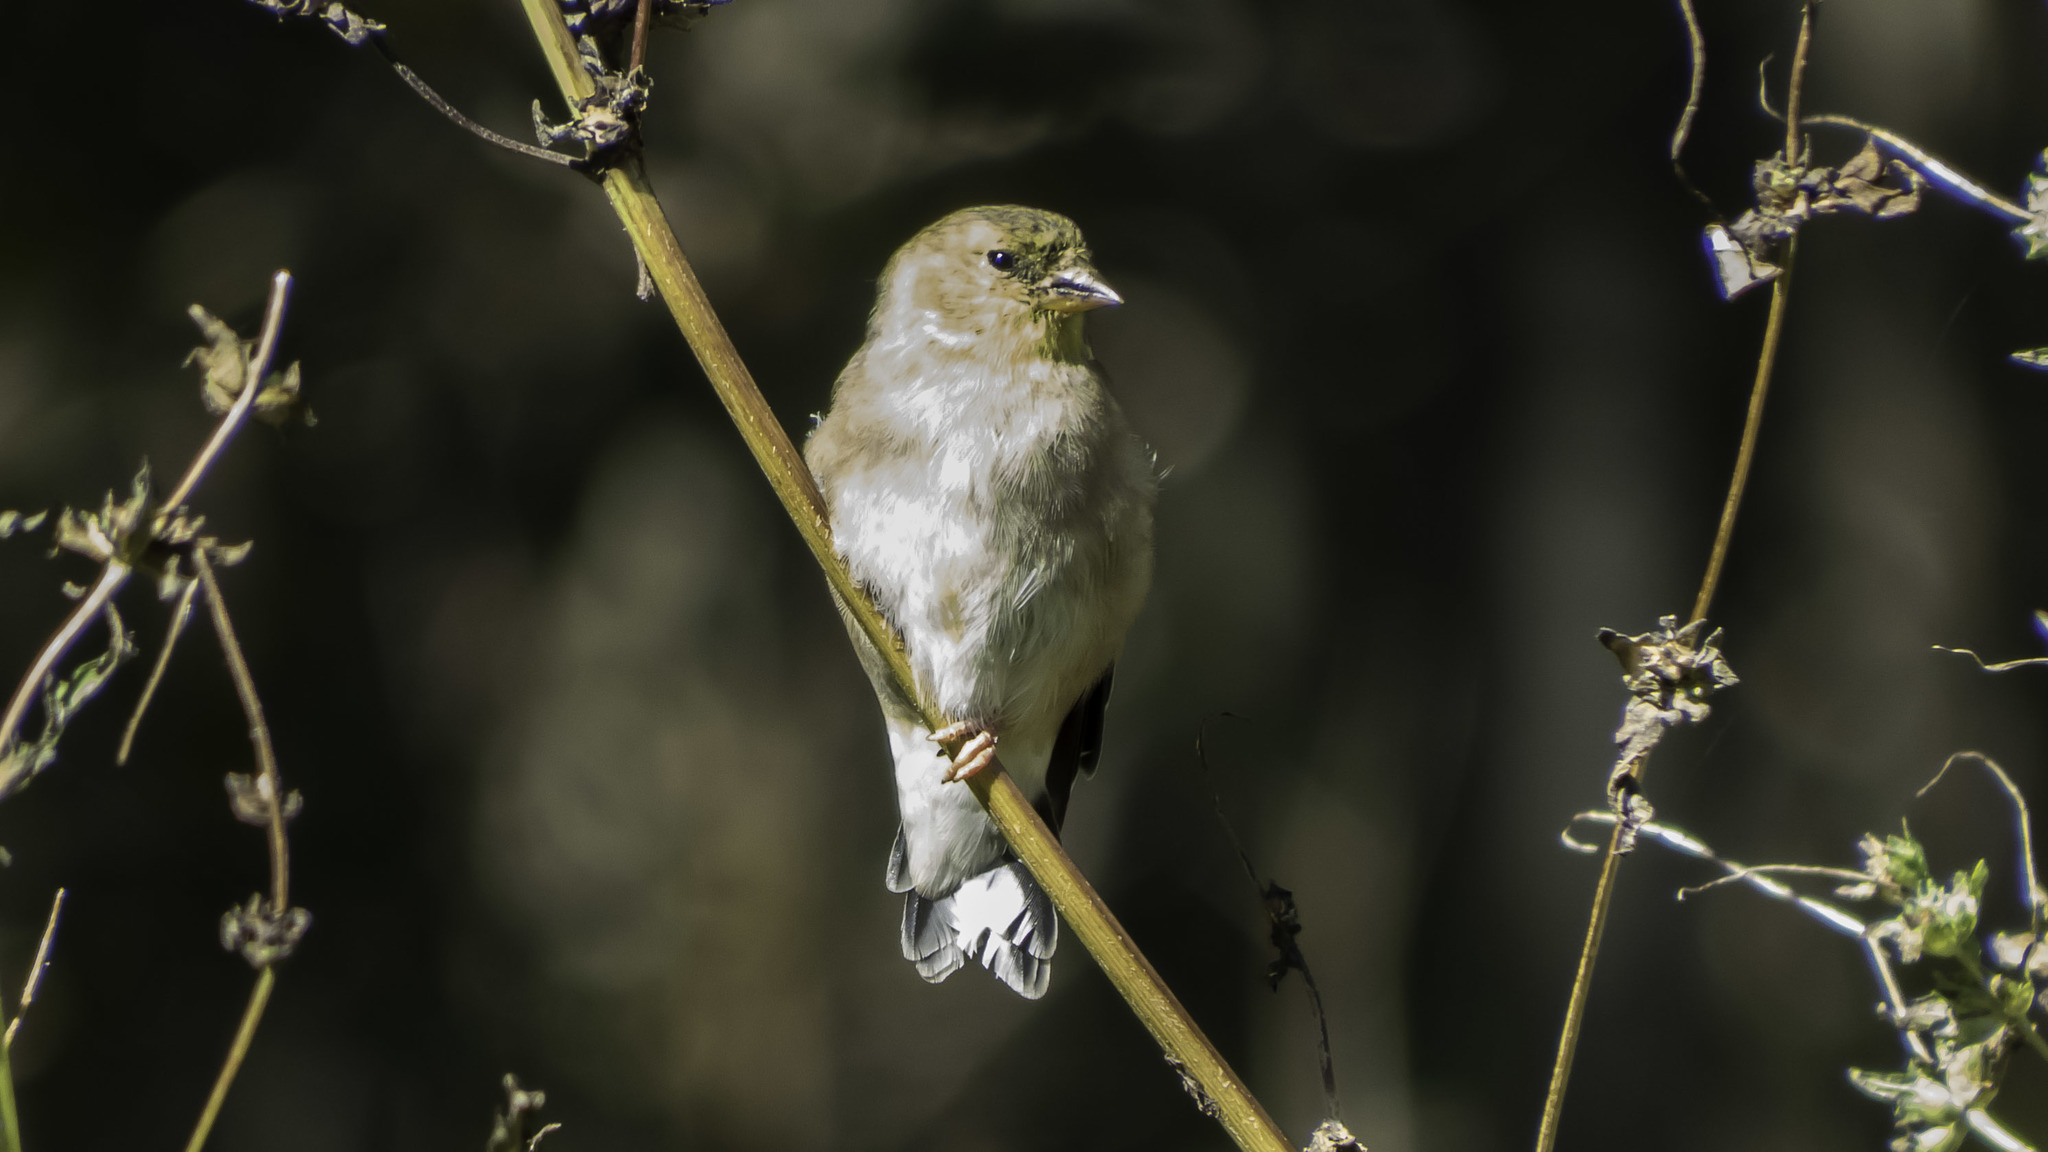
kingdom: Animalia
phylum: Chordata
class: Aves
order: Passeriformes
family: Fringillidae
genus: Spinus
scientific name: Spinus tristis
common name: American goldfinch
